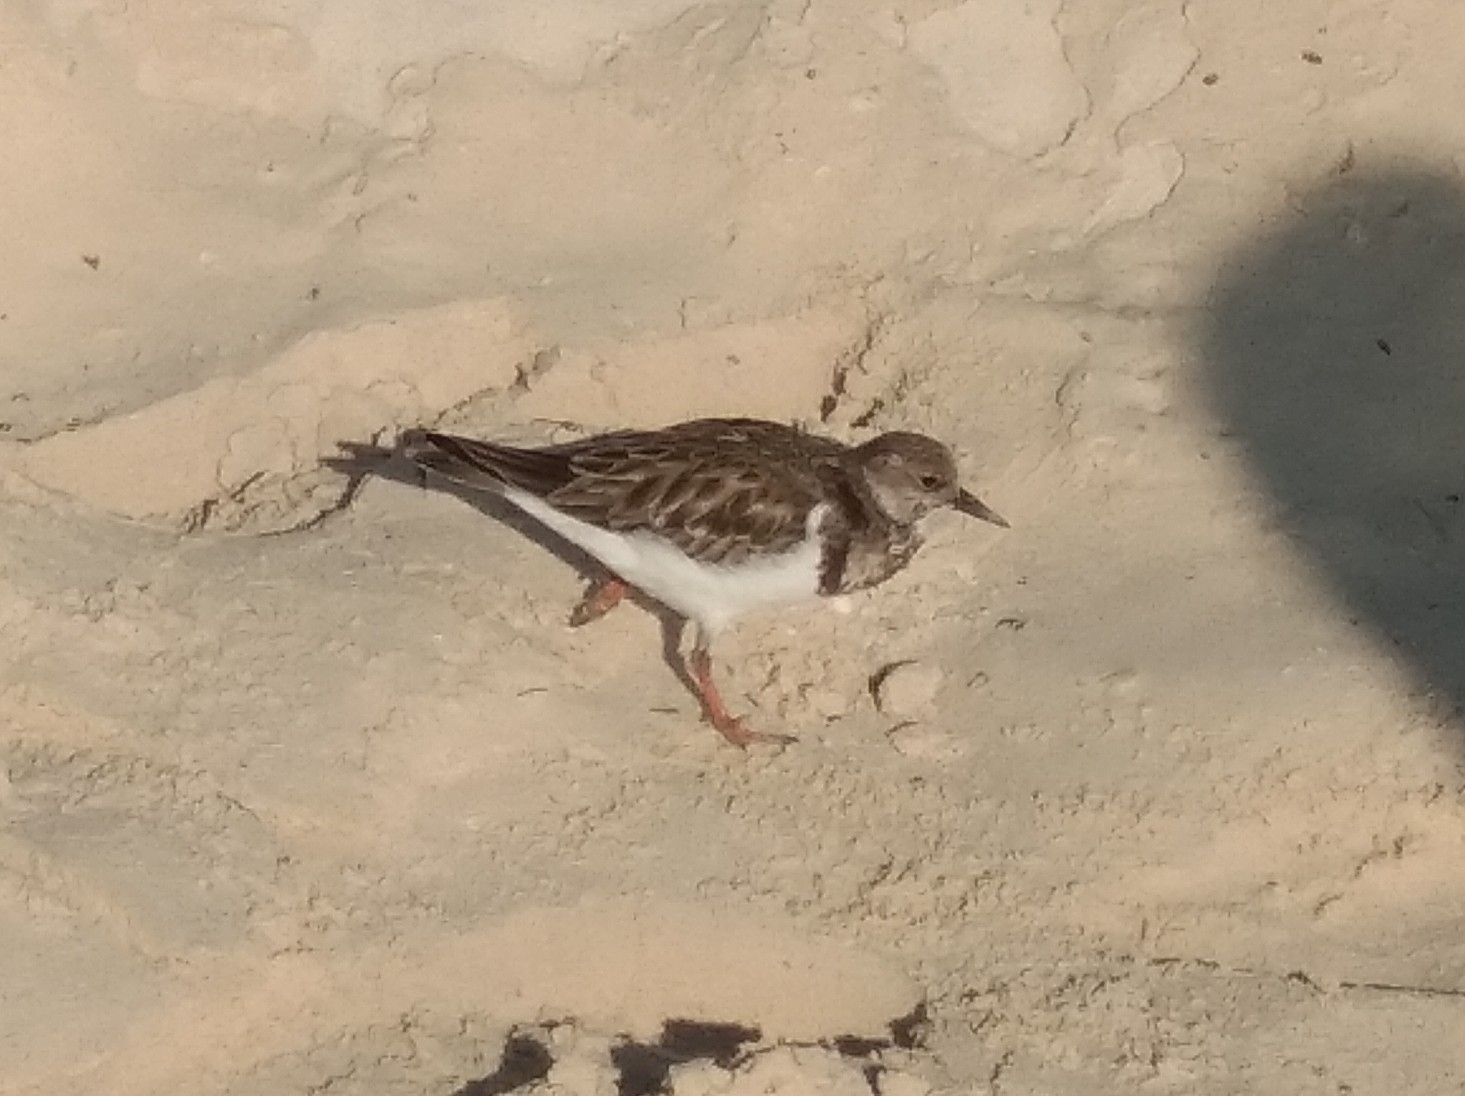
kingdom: Animalia
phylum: Chordata
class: Aves
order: Charadriiformes
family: Scolopacidae
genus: Arenaria
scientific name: Arenaria interpres
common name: Ruddy turnstone
